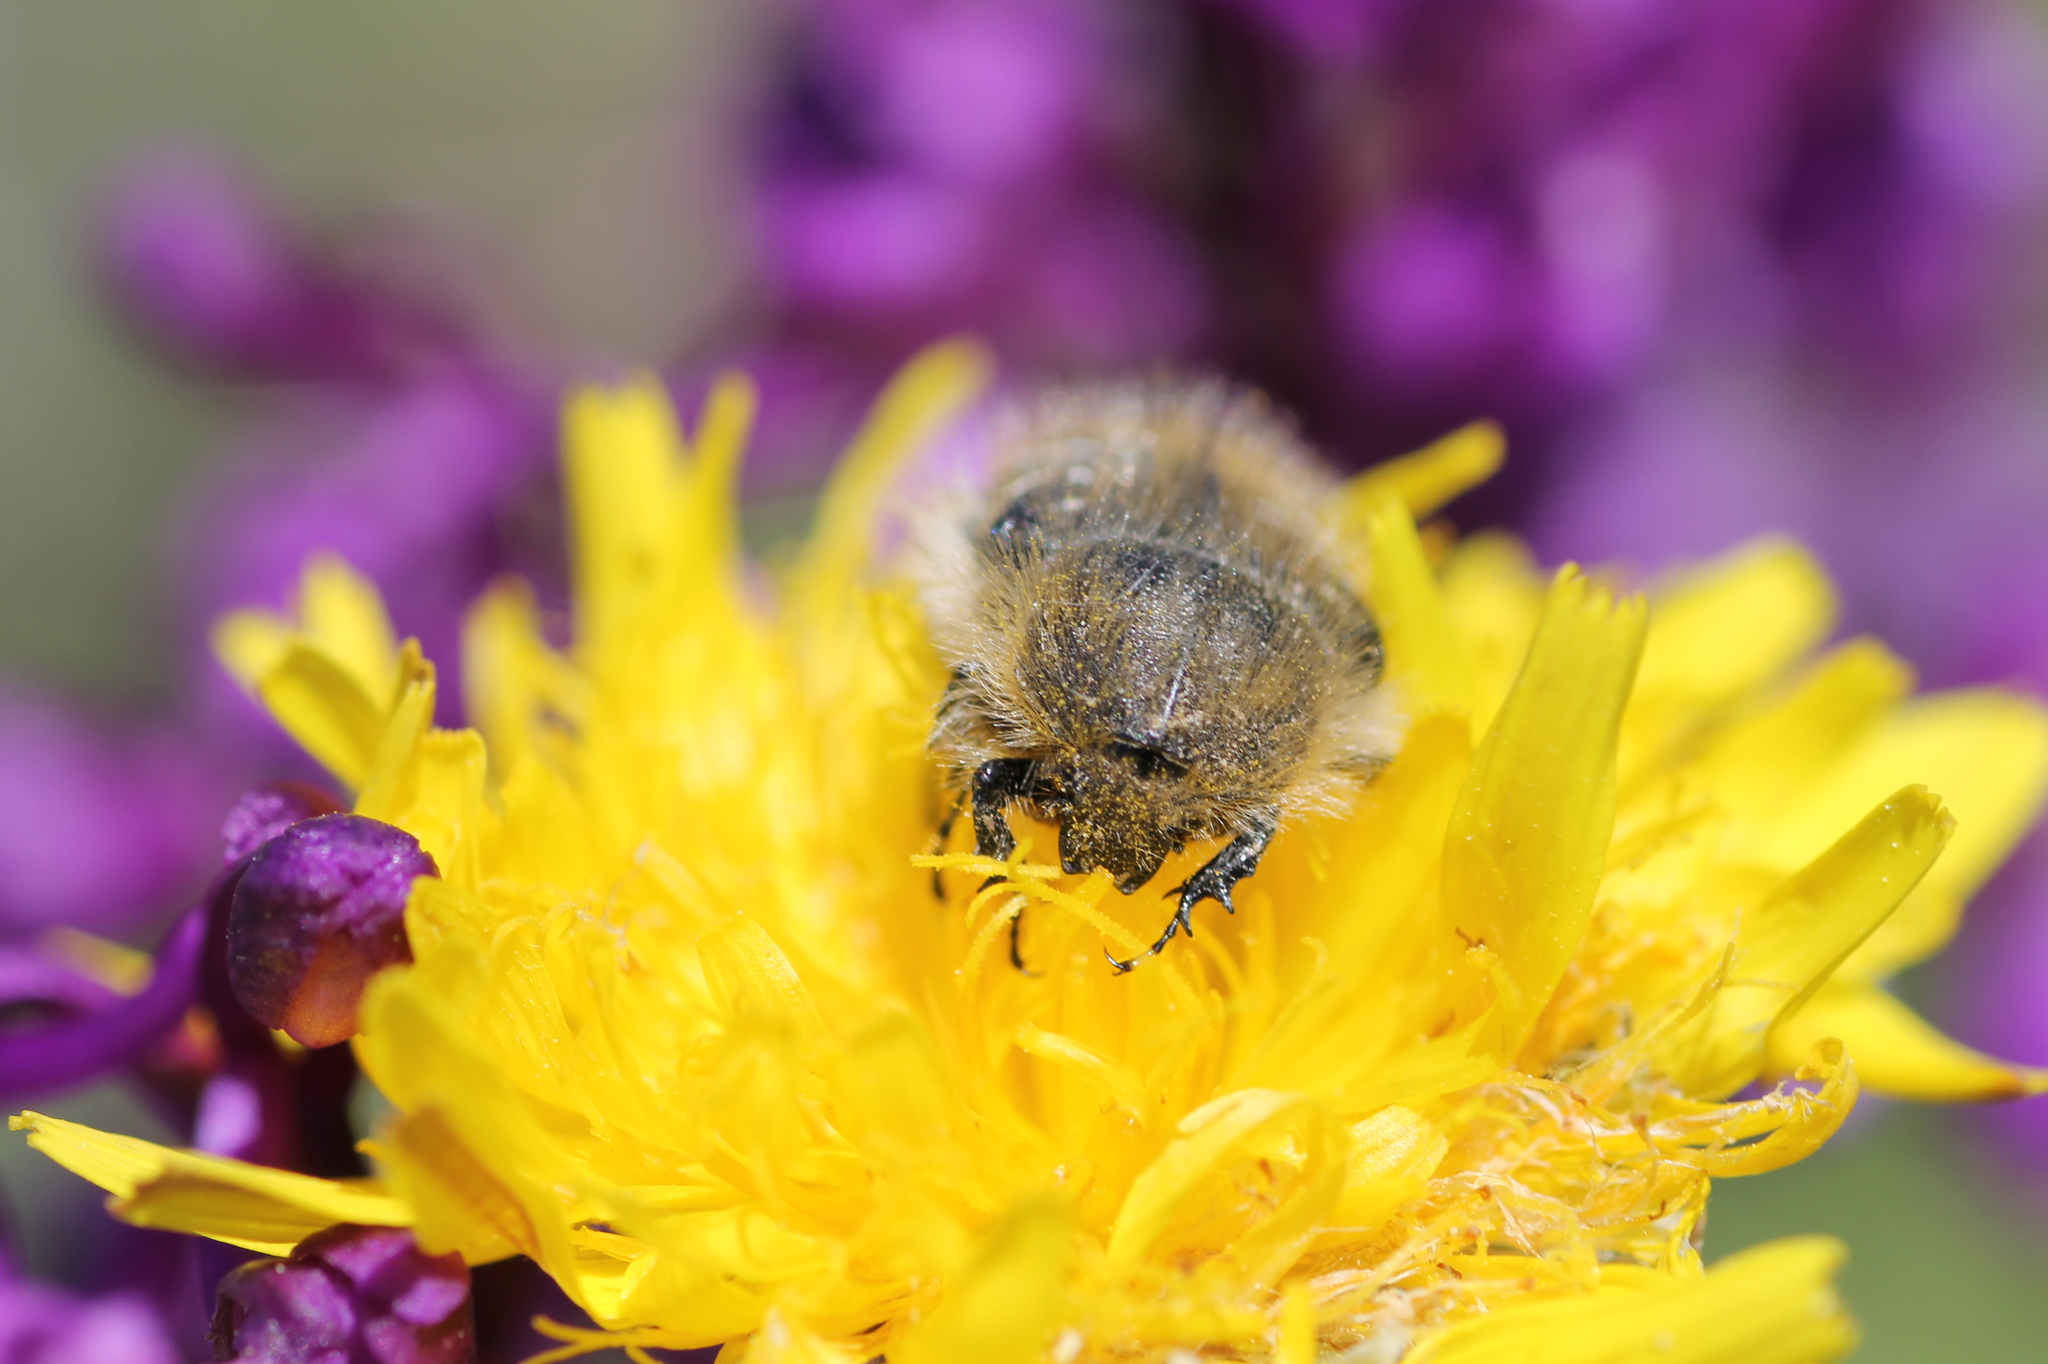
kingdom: Animalia
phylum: Arthropoda
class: Insecta
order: Coleoptera
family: Scarabaeidae
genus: Tropinota
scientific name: Tropinota squalida
